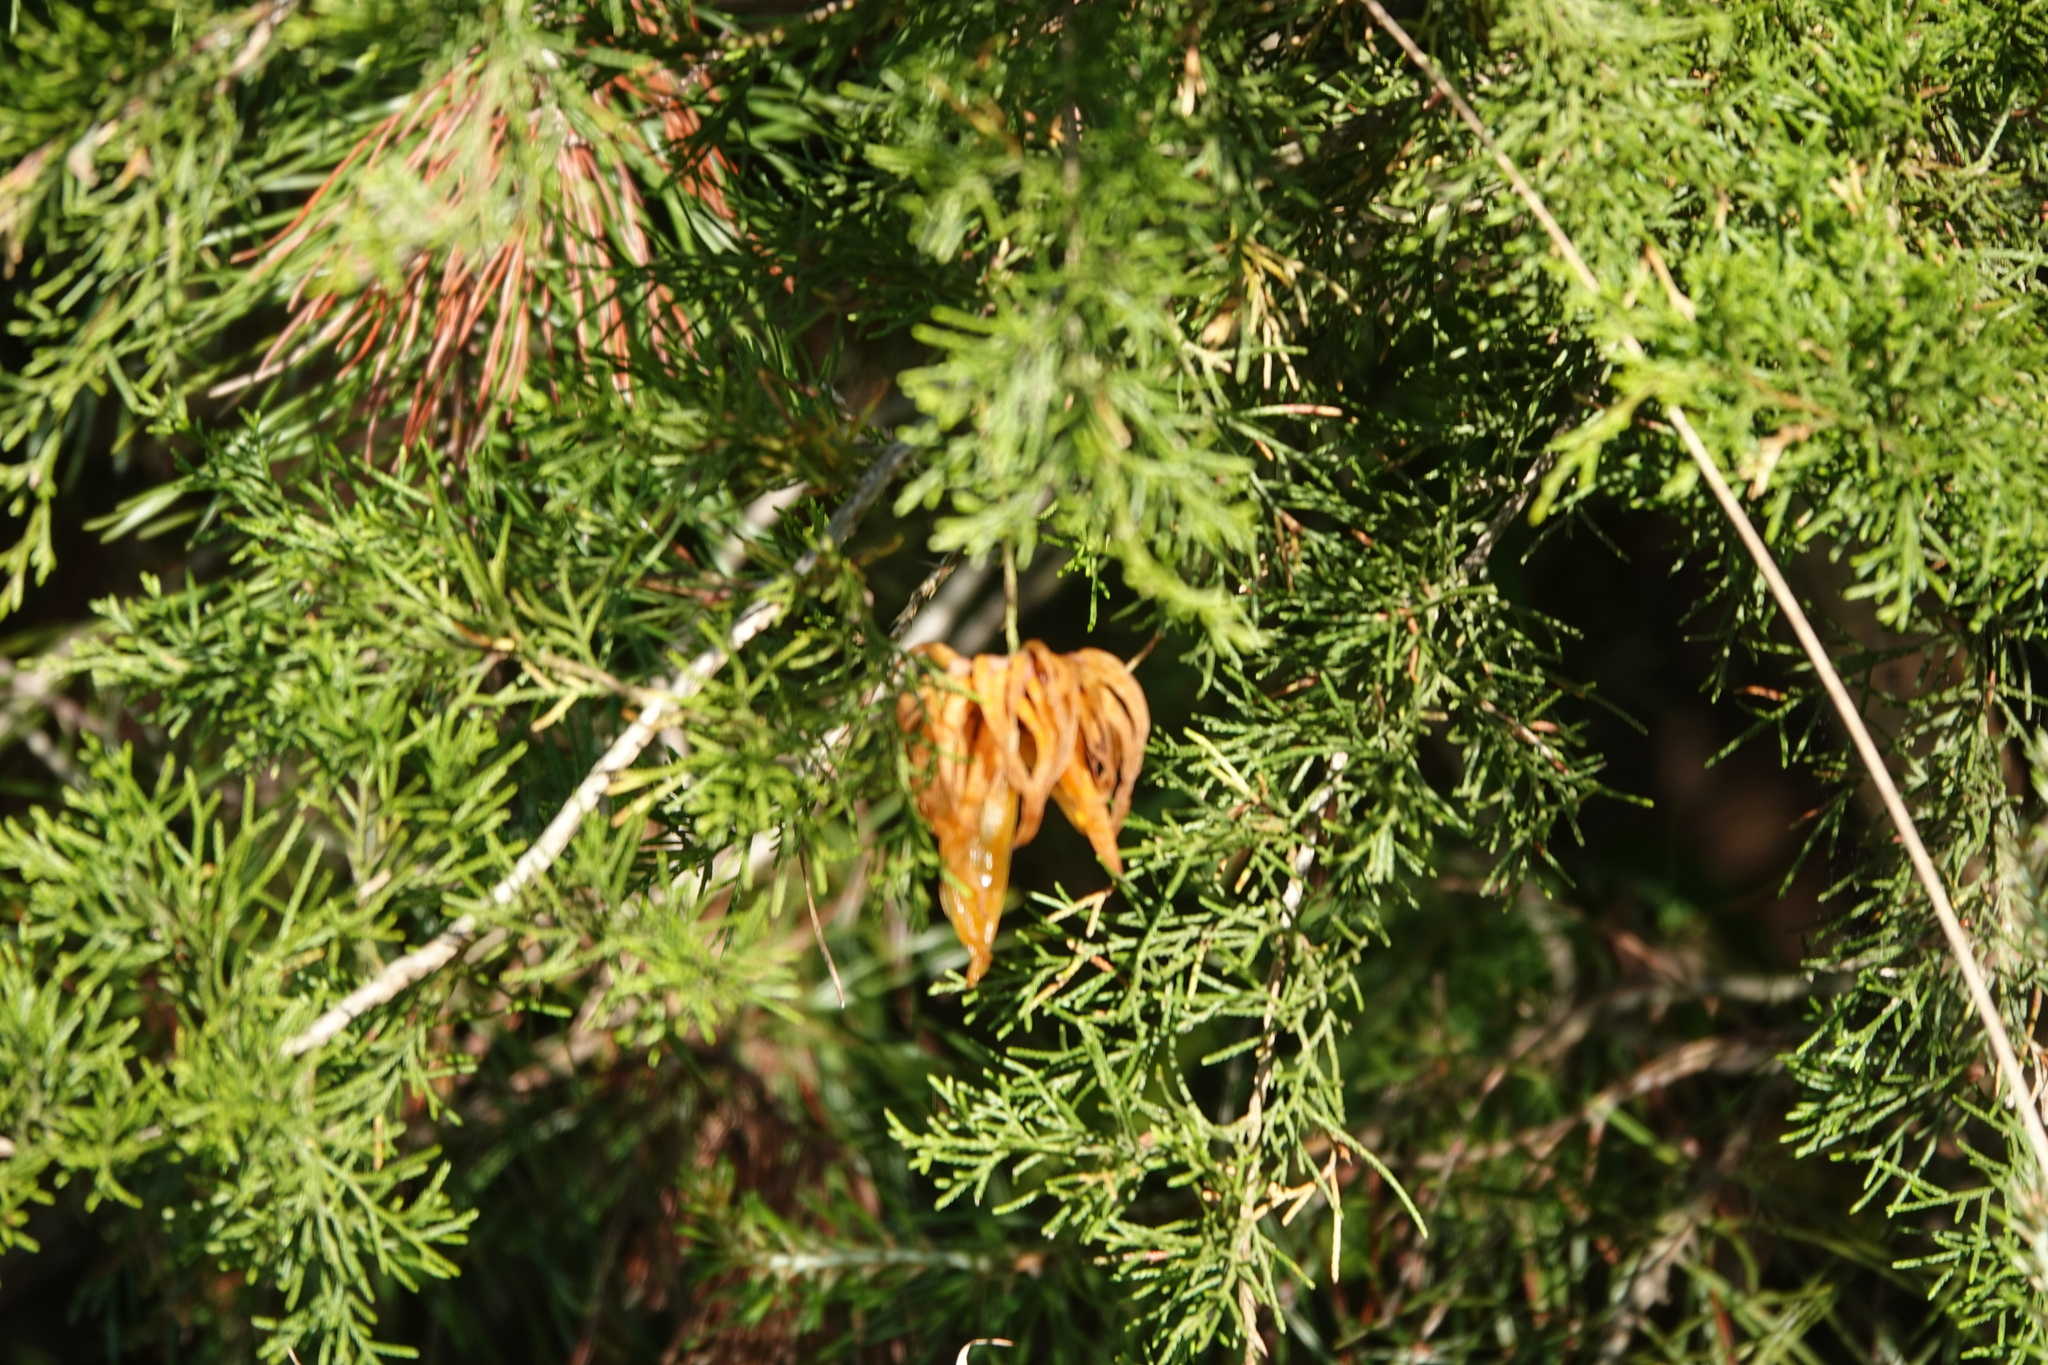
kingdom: Fungi
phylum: Basidiomycota
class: Pucciniomycetes
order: Pucciniales
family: Gymnosporangiaceae
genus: Gymnosporangium
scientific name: Gymnosporangium juniperi-virginianae
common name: Juniper-apple rust
